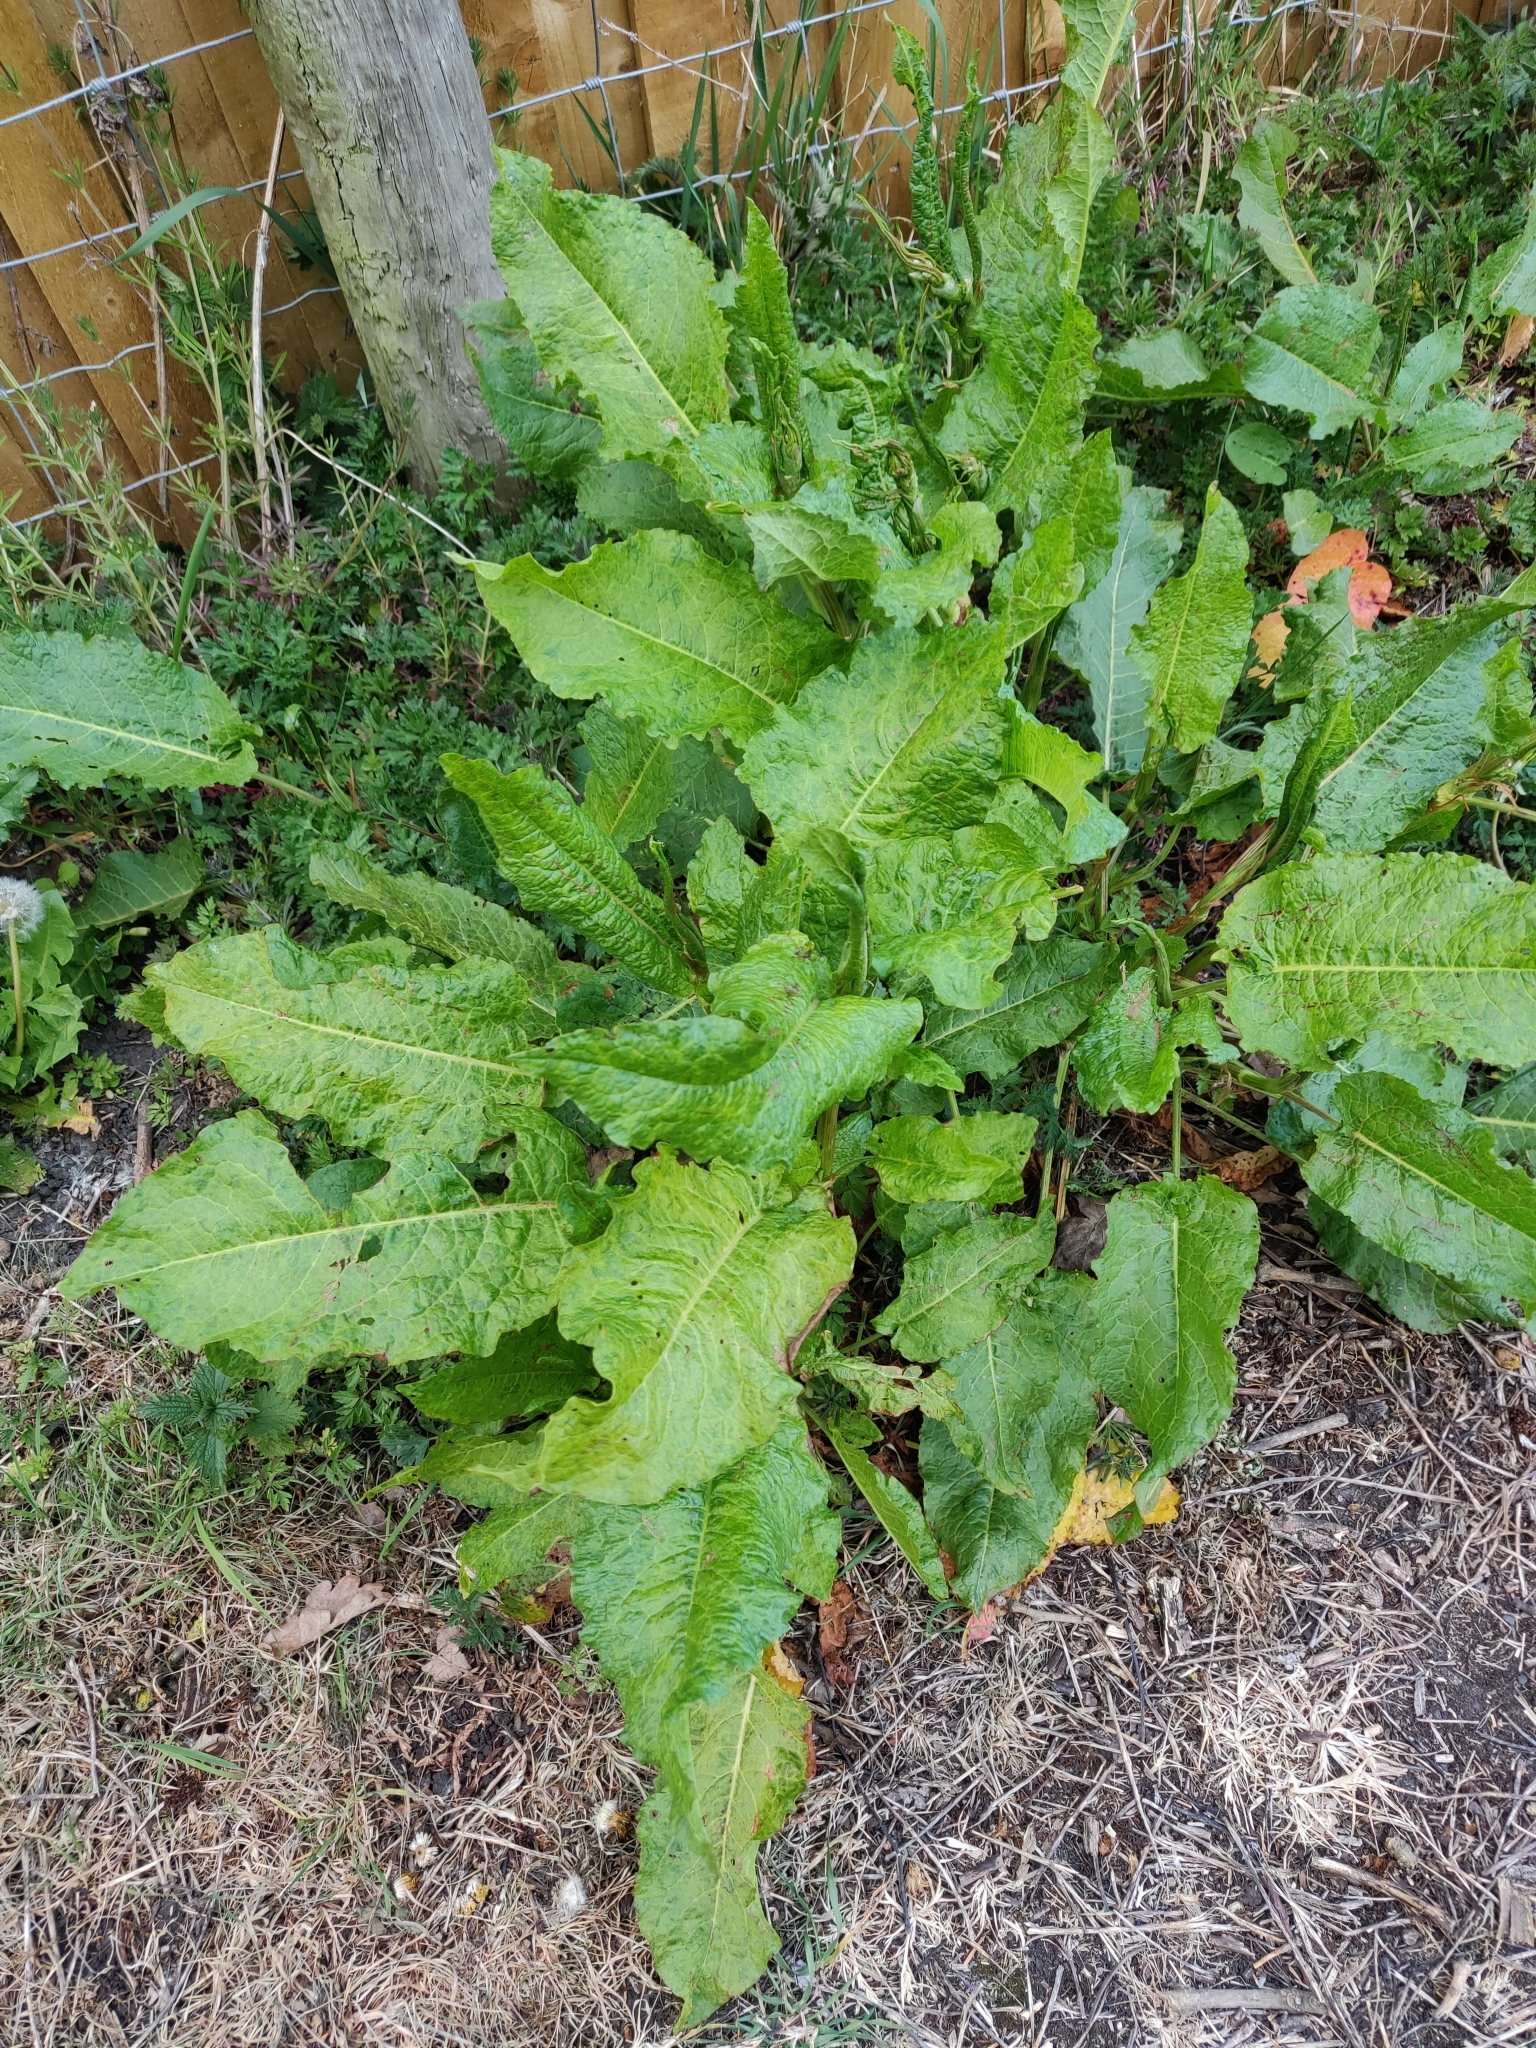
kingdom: Plantae
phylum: Tracheophyta
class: Magnoliopsida
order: Caryophyllales
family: Polygonaceae
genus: Rumex
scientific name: Rumex obtusifolius
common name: Bitter dock
